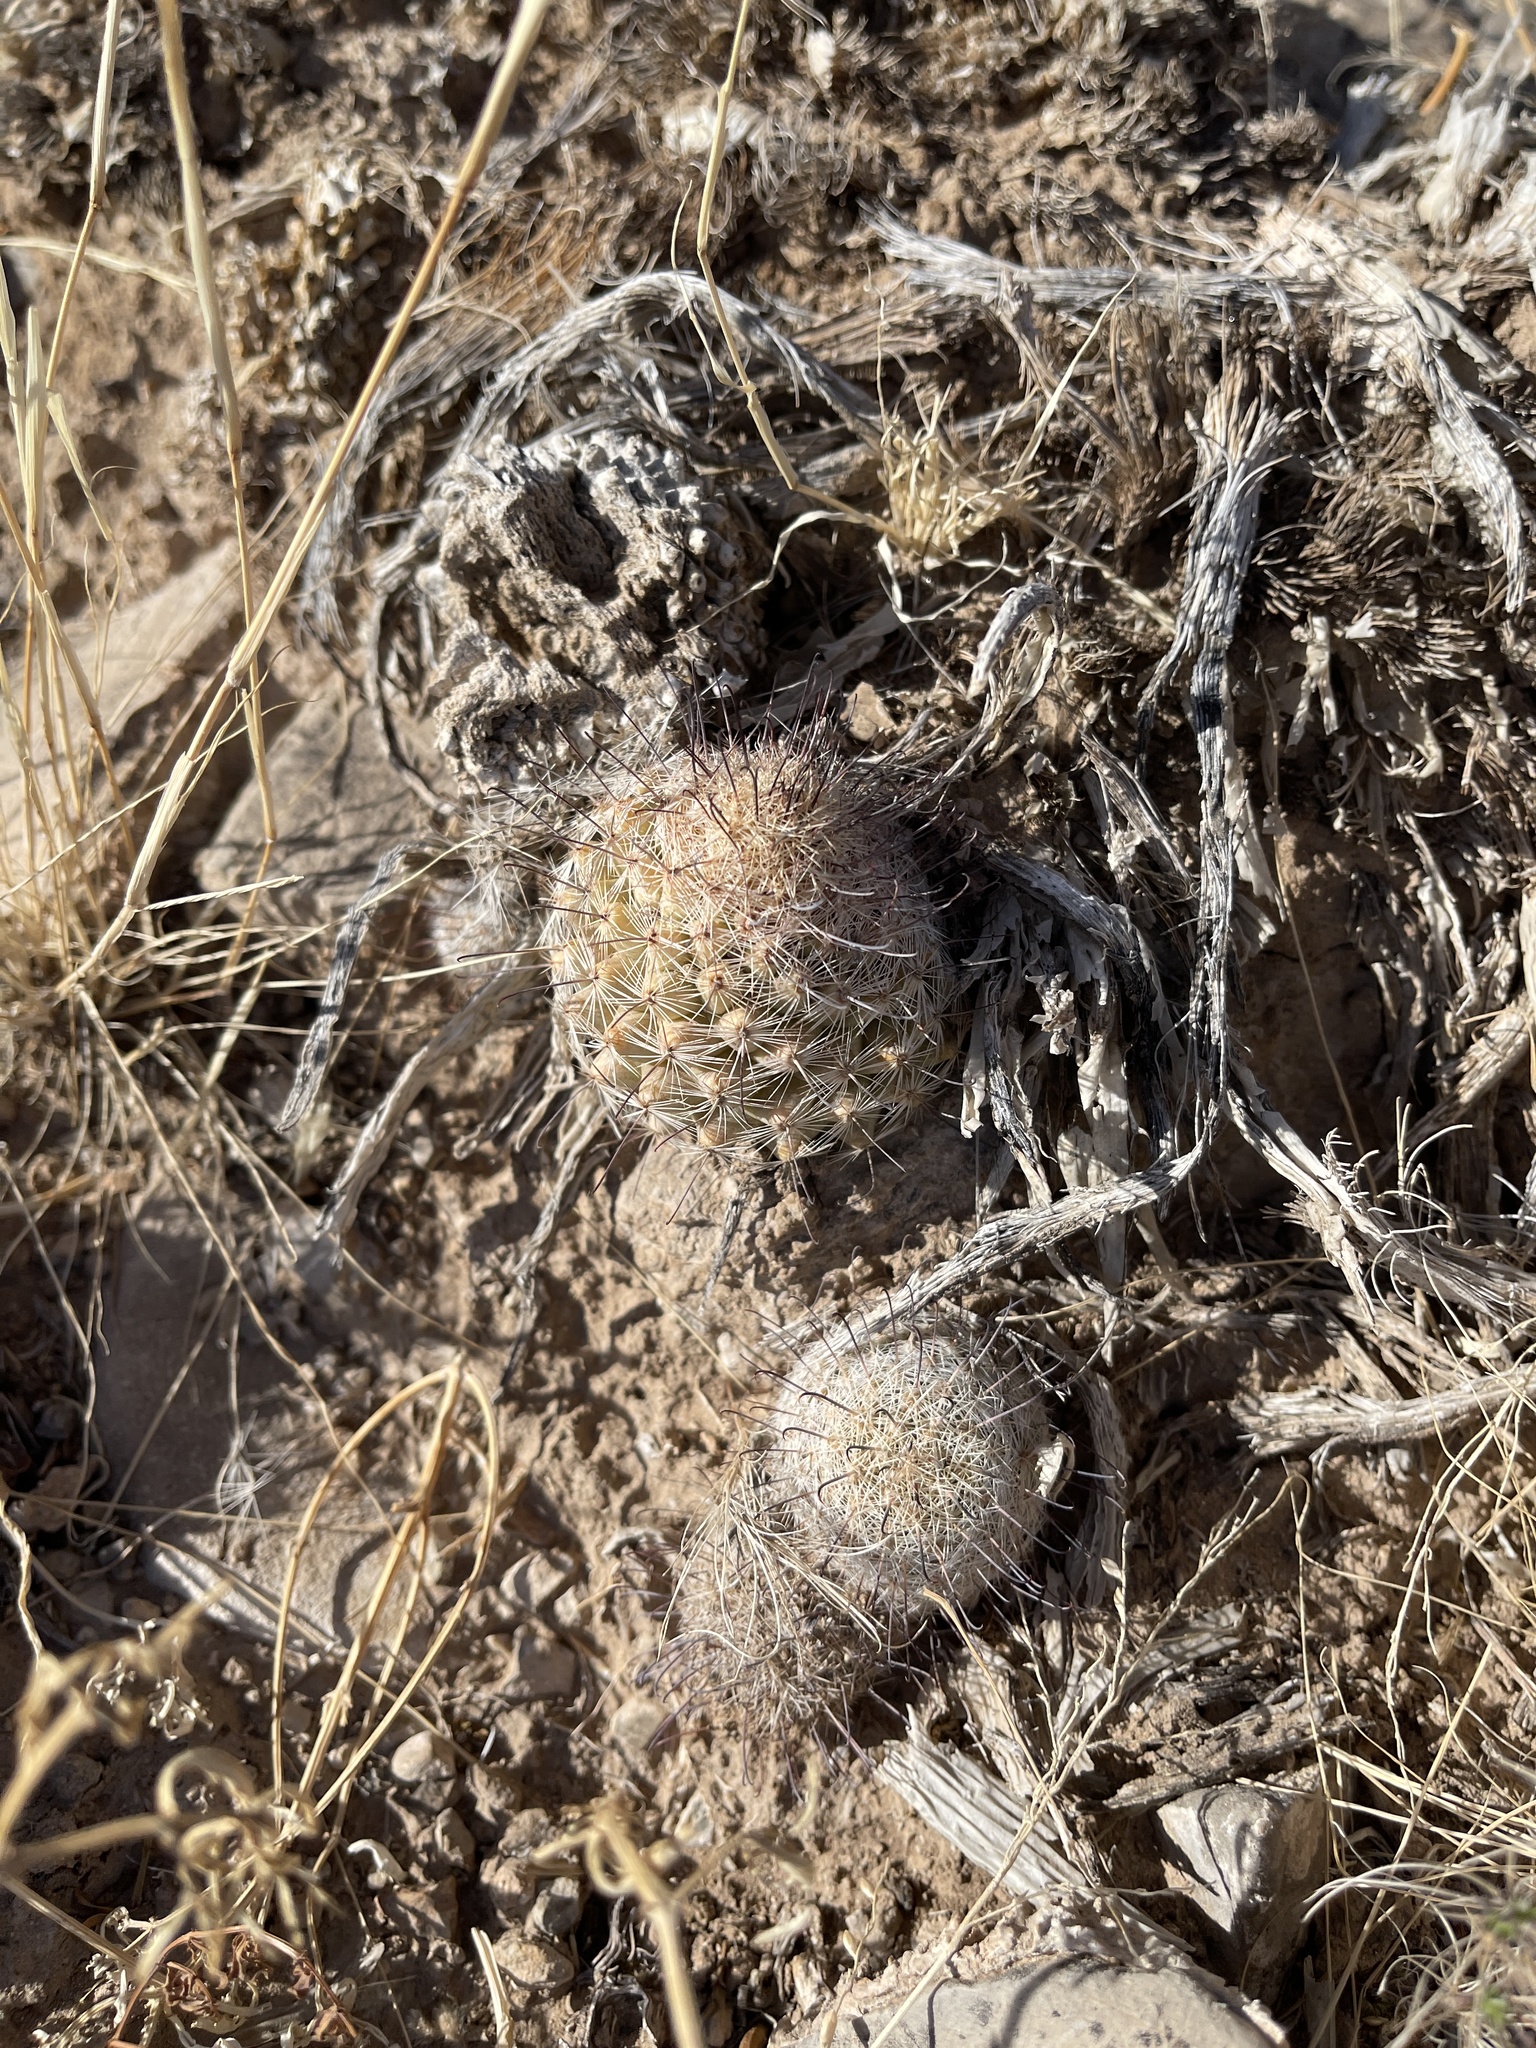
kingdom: Plantae
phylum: Tracheophyta
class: Magnoliopsida
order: Caryophyllales
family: Cactaceae
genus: Cochemiea
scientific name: Cochemiea grahamii
